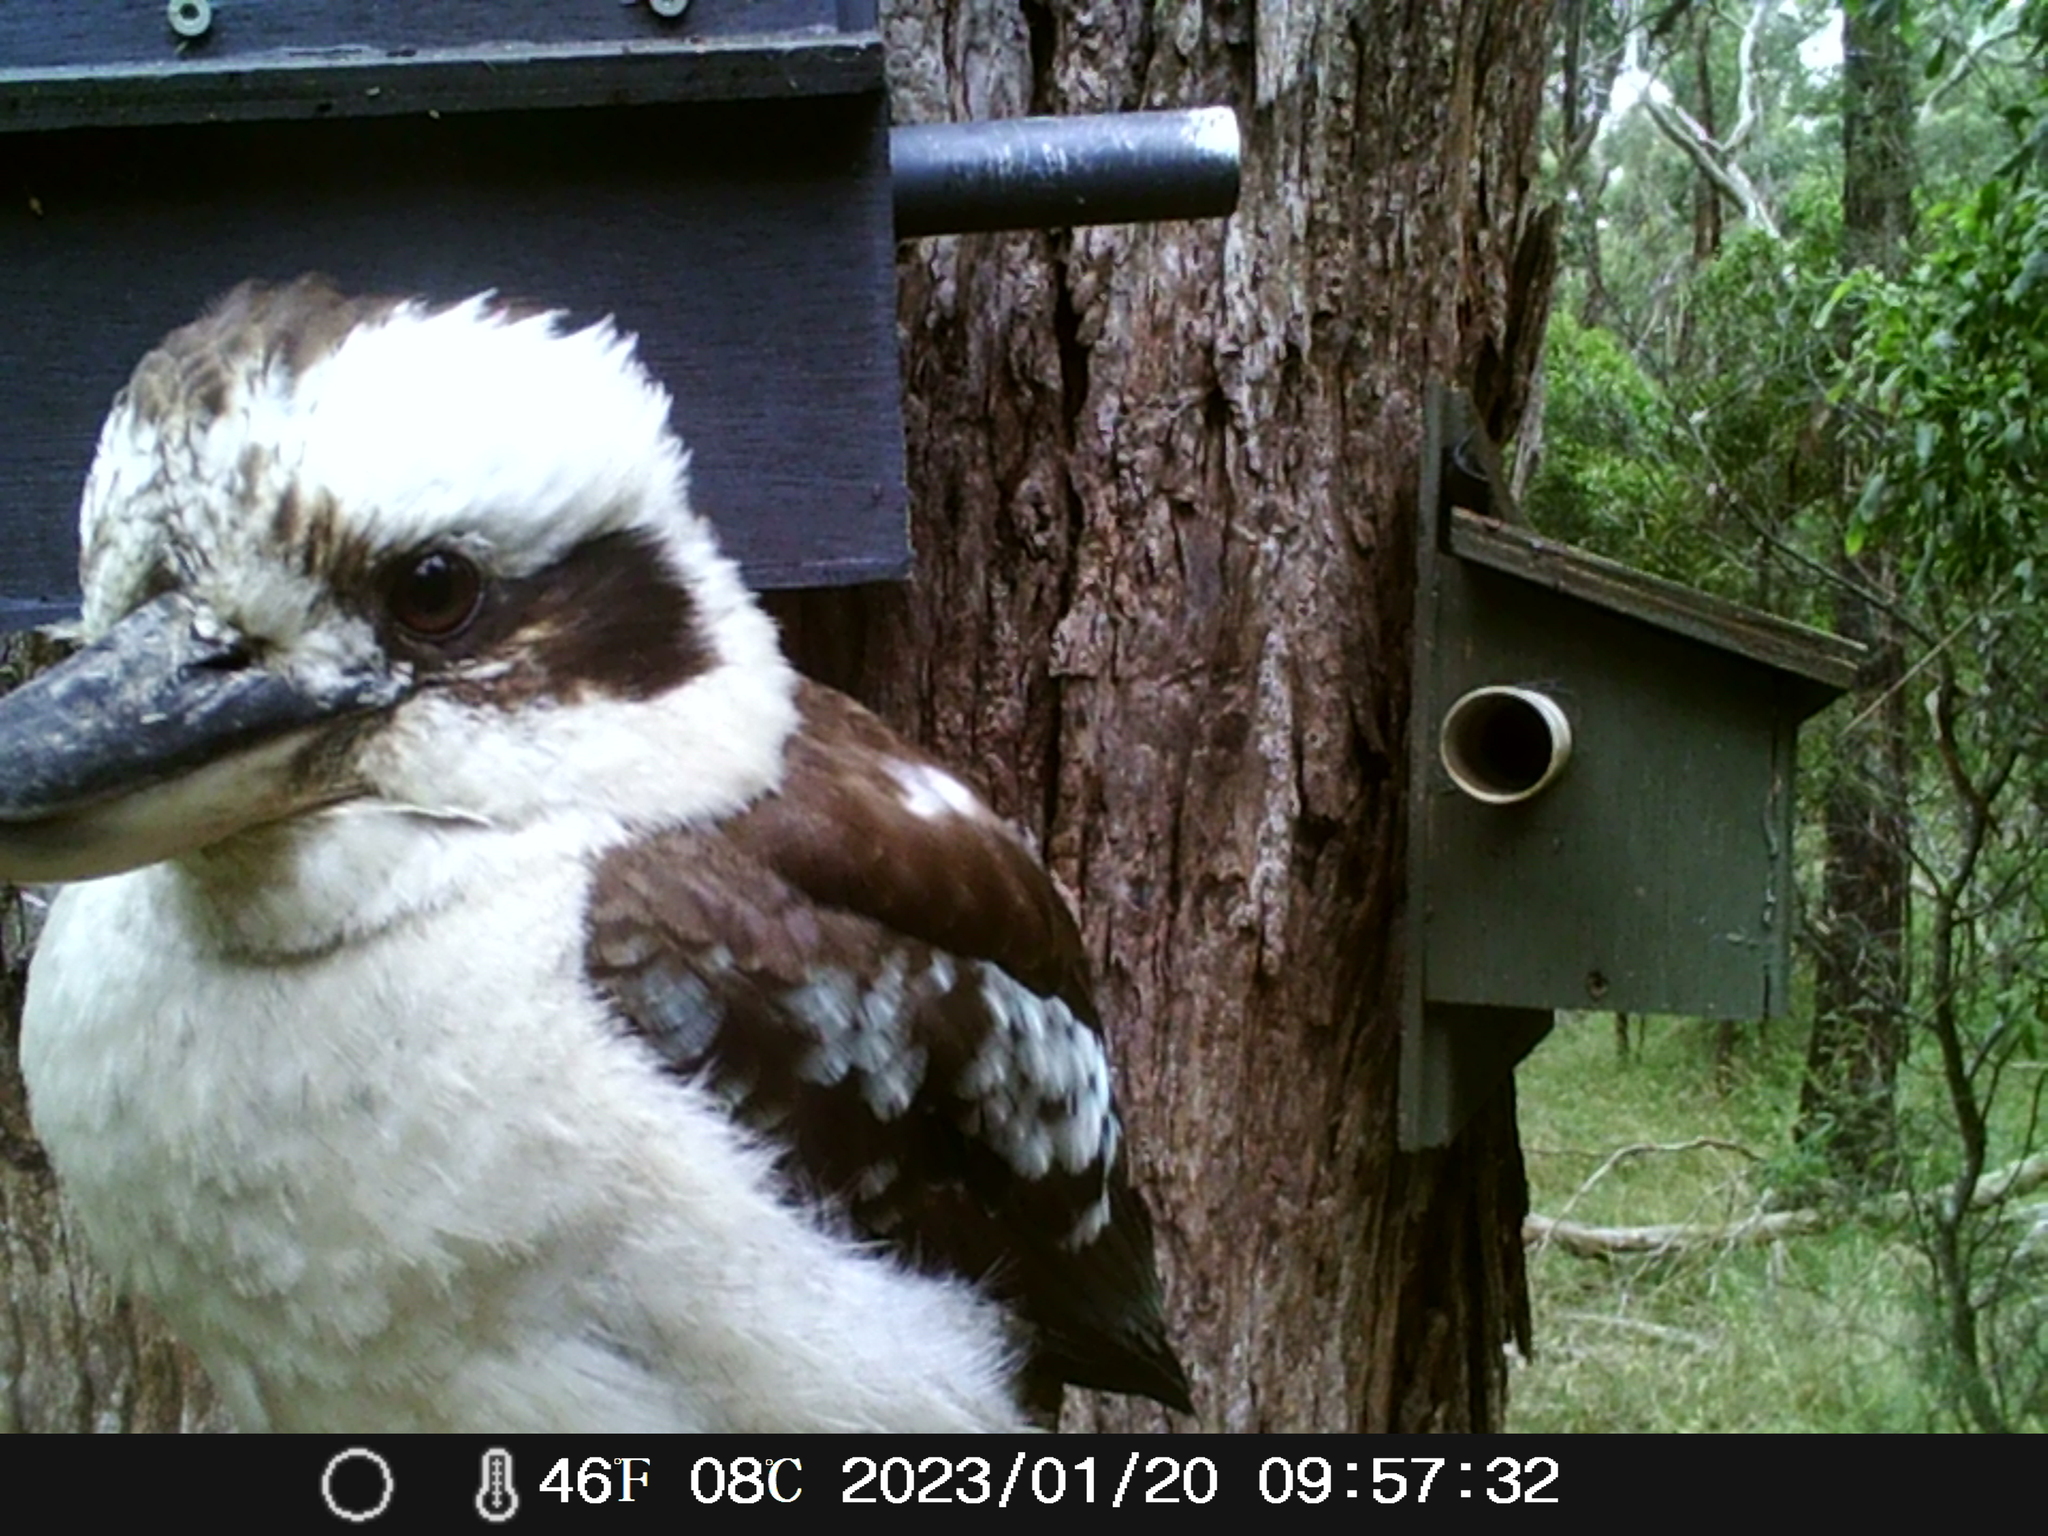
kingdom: Animalia
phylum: Chordata
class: Aves
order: Coraciiformes
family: Alcedinidae
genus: Dacelo
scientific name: Dacelo novaeguineae
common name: Laughing kookaburra
